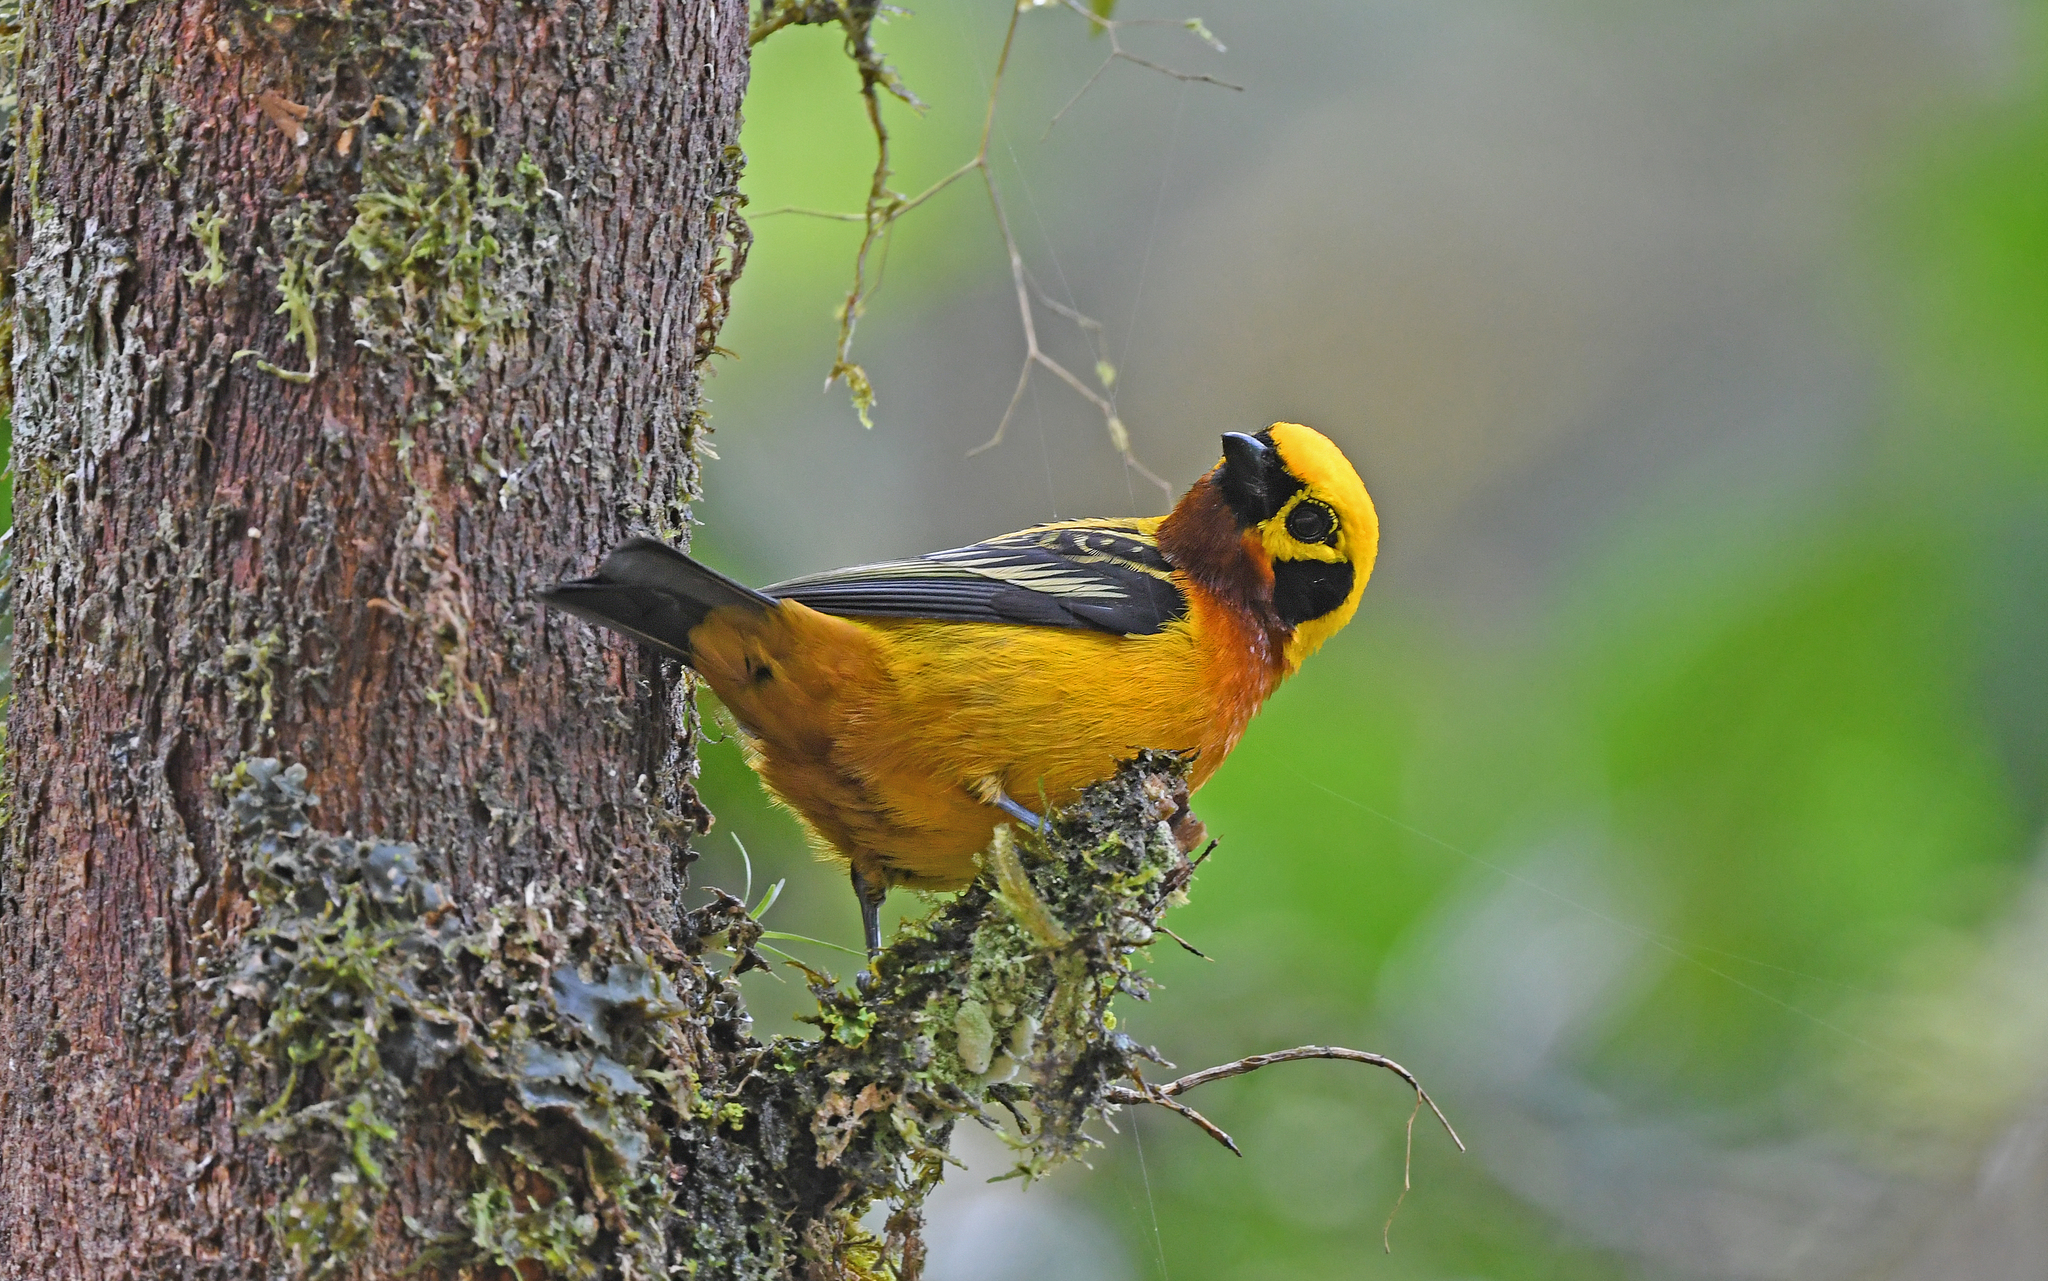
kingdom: Animalia
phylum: Chordata
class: Aves
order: Passeriformes
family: Thraupidae
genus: Tangara
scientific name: Tangara arthus
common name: Golden tanager
